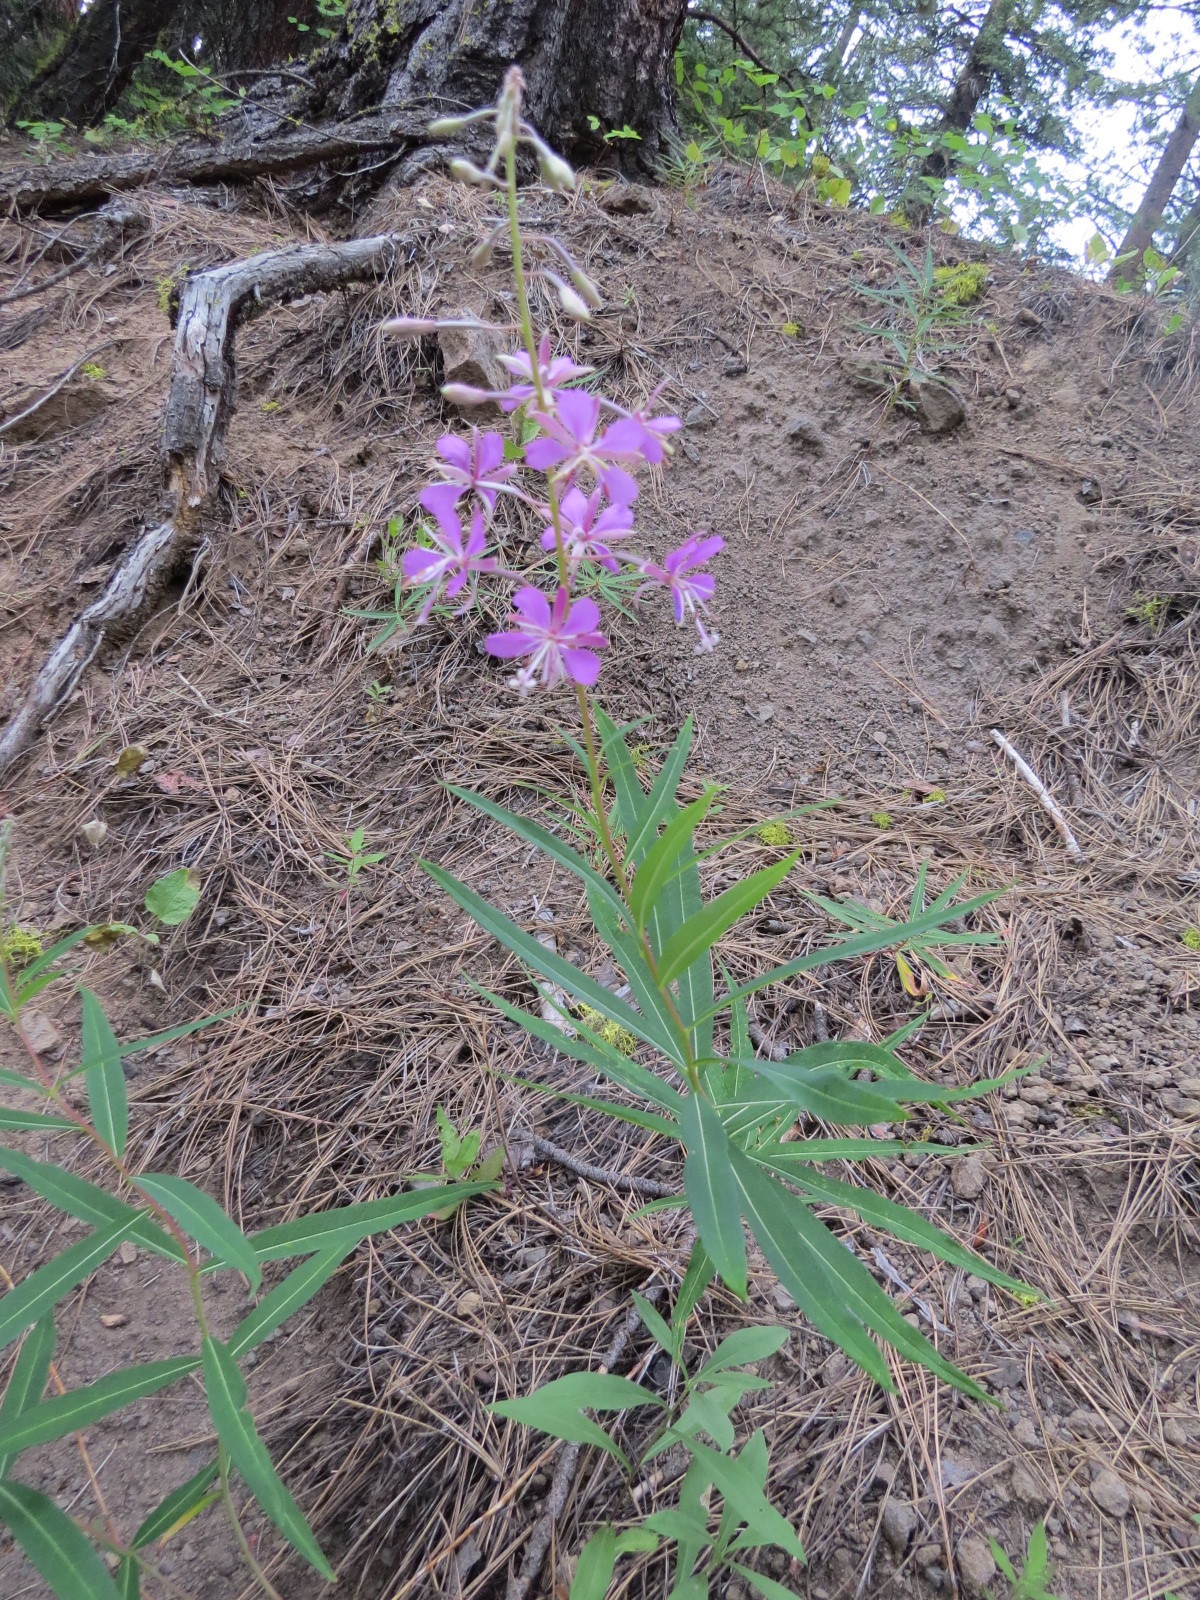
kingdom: Plantae
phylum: Tracheophyta
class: Magnoliopsida
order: Myrtales
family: Onagraceae
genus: Chamaenerion
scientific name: Chamaenerion angustifolium
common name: Fireweed
